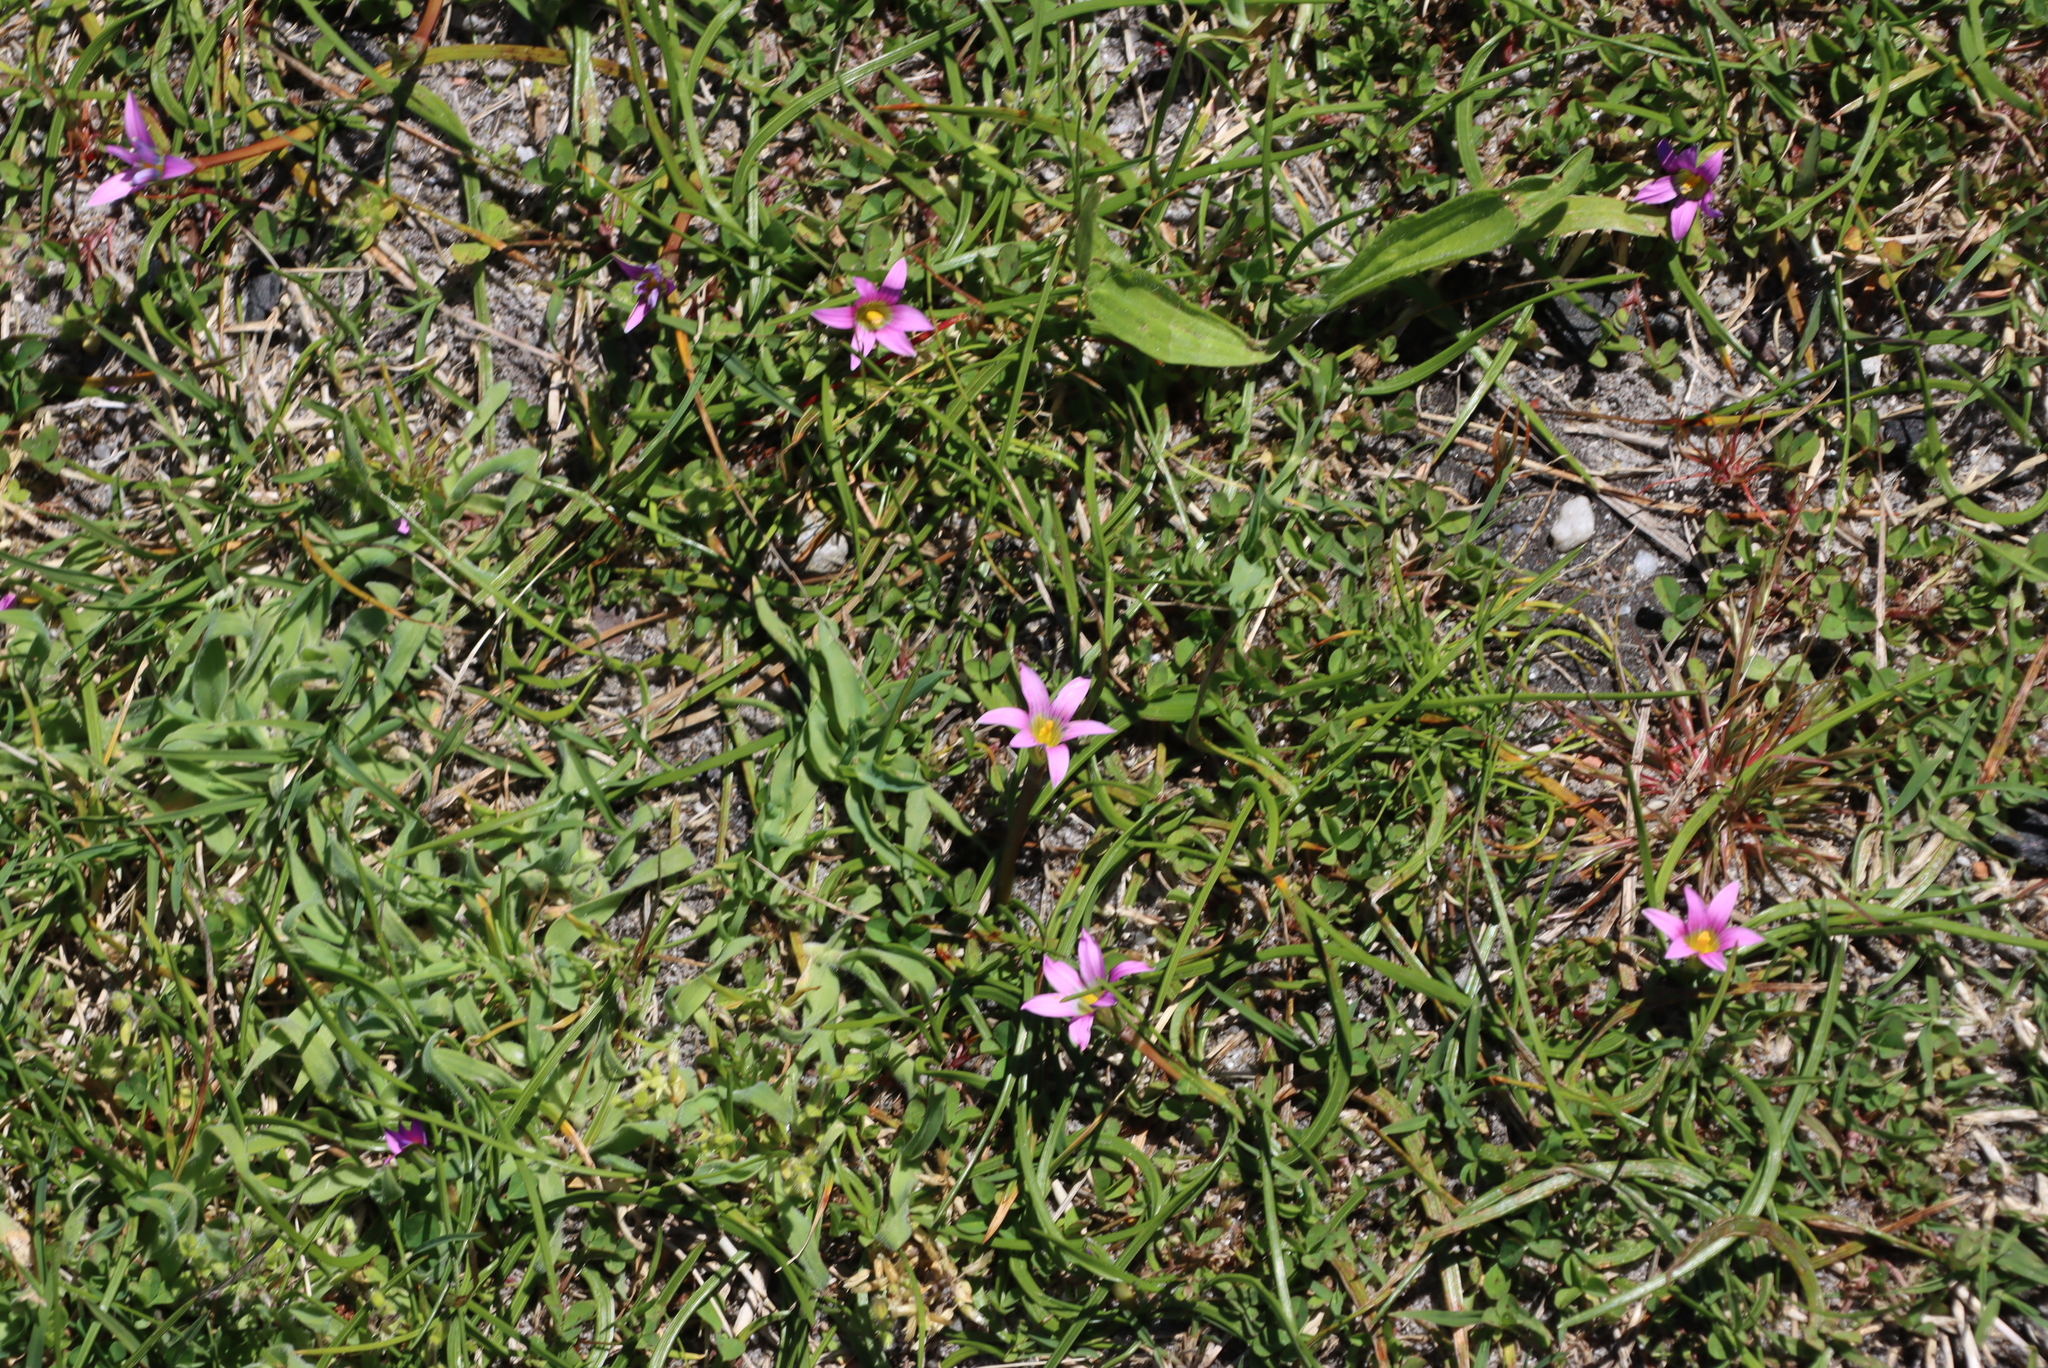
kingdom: Plantae
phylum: Tracheophyta
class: Liliopsida
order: Asparagales
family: Iridaceae
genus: Romulea
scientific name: Romulea rosea
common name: Oniongrass
